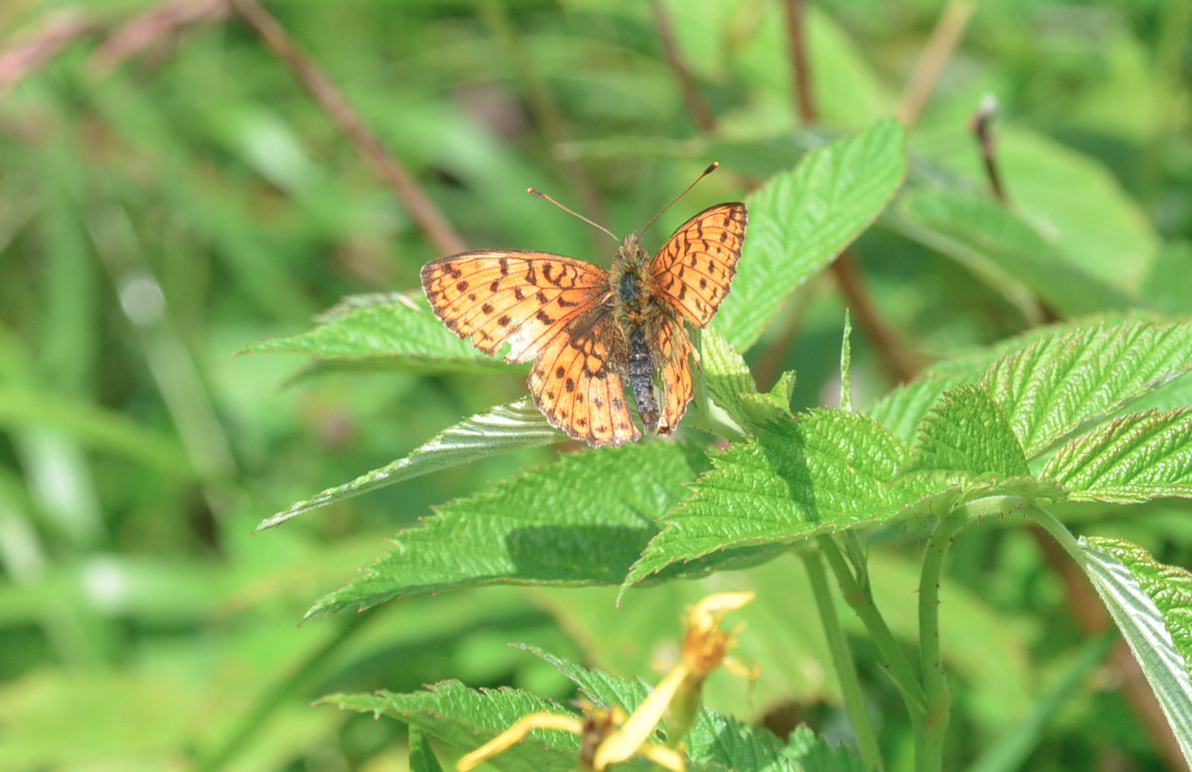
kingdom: Animalia
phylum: Arthropoda
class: Insecta
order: Lepidoptera
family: Nymphalidae
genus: Brenthis
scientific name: Brenthis ino
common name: Lesser marbled fritillary
